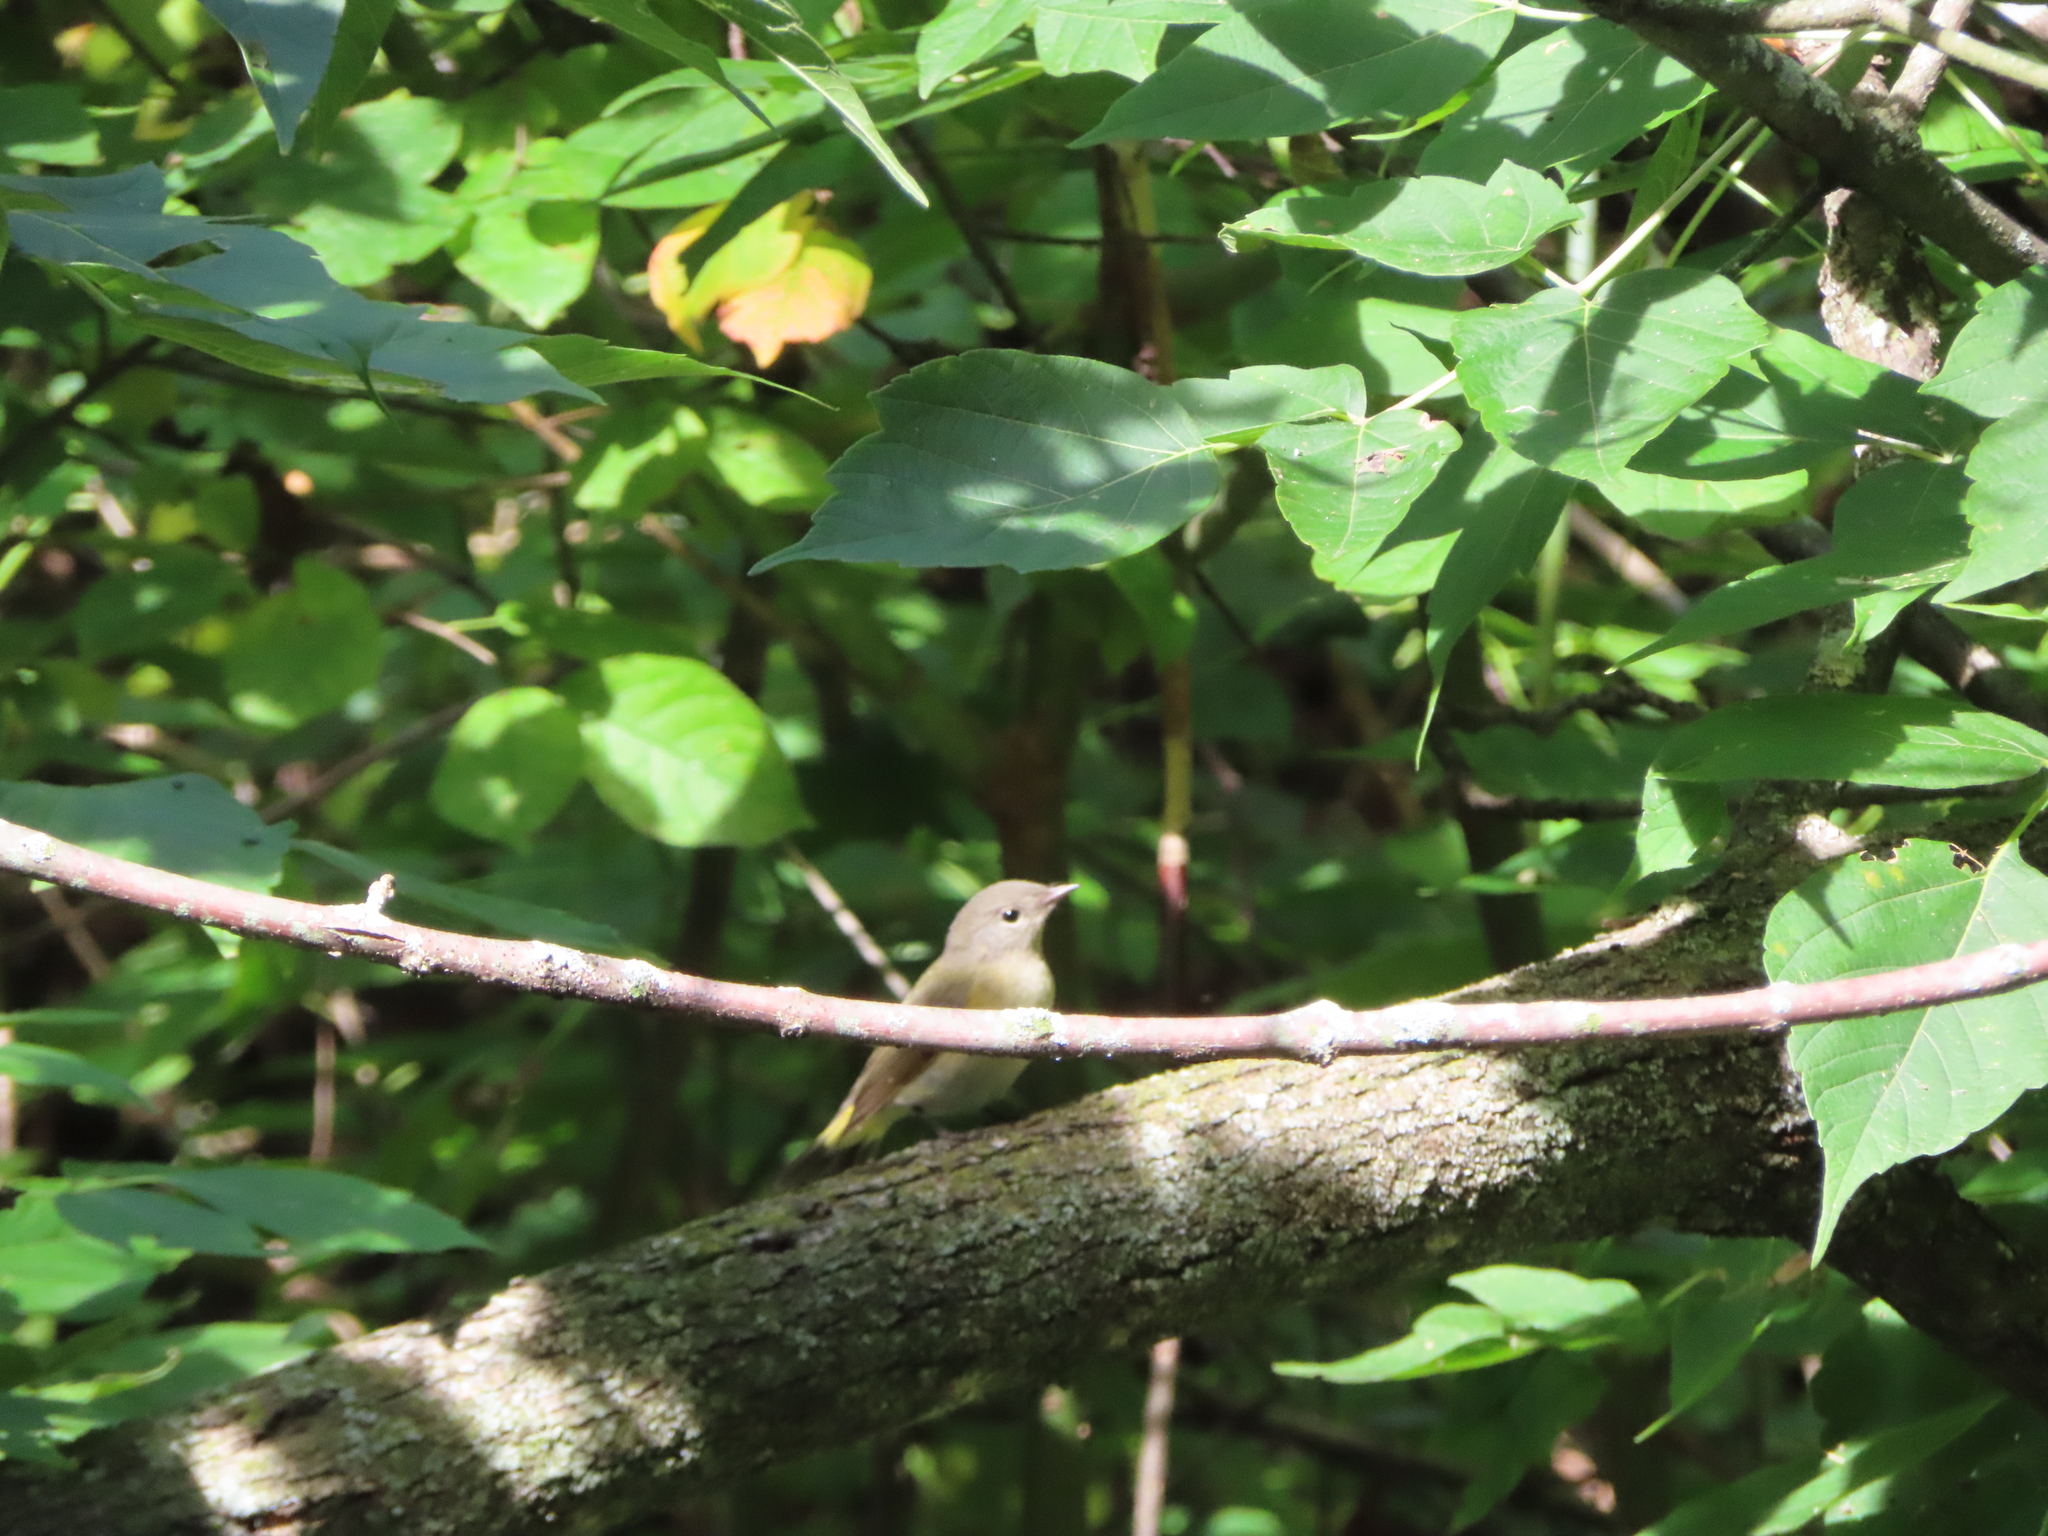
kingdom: Animalia
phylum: Chordata
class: Aves
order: Passeriformes
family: Parulidae
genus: Setophaga
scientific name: Setophaga ruticilla
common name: American redstart
